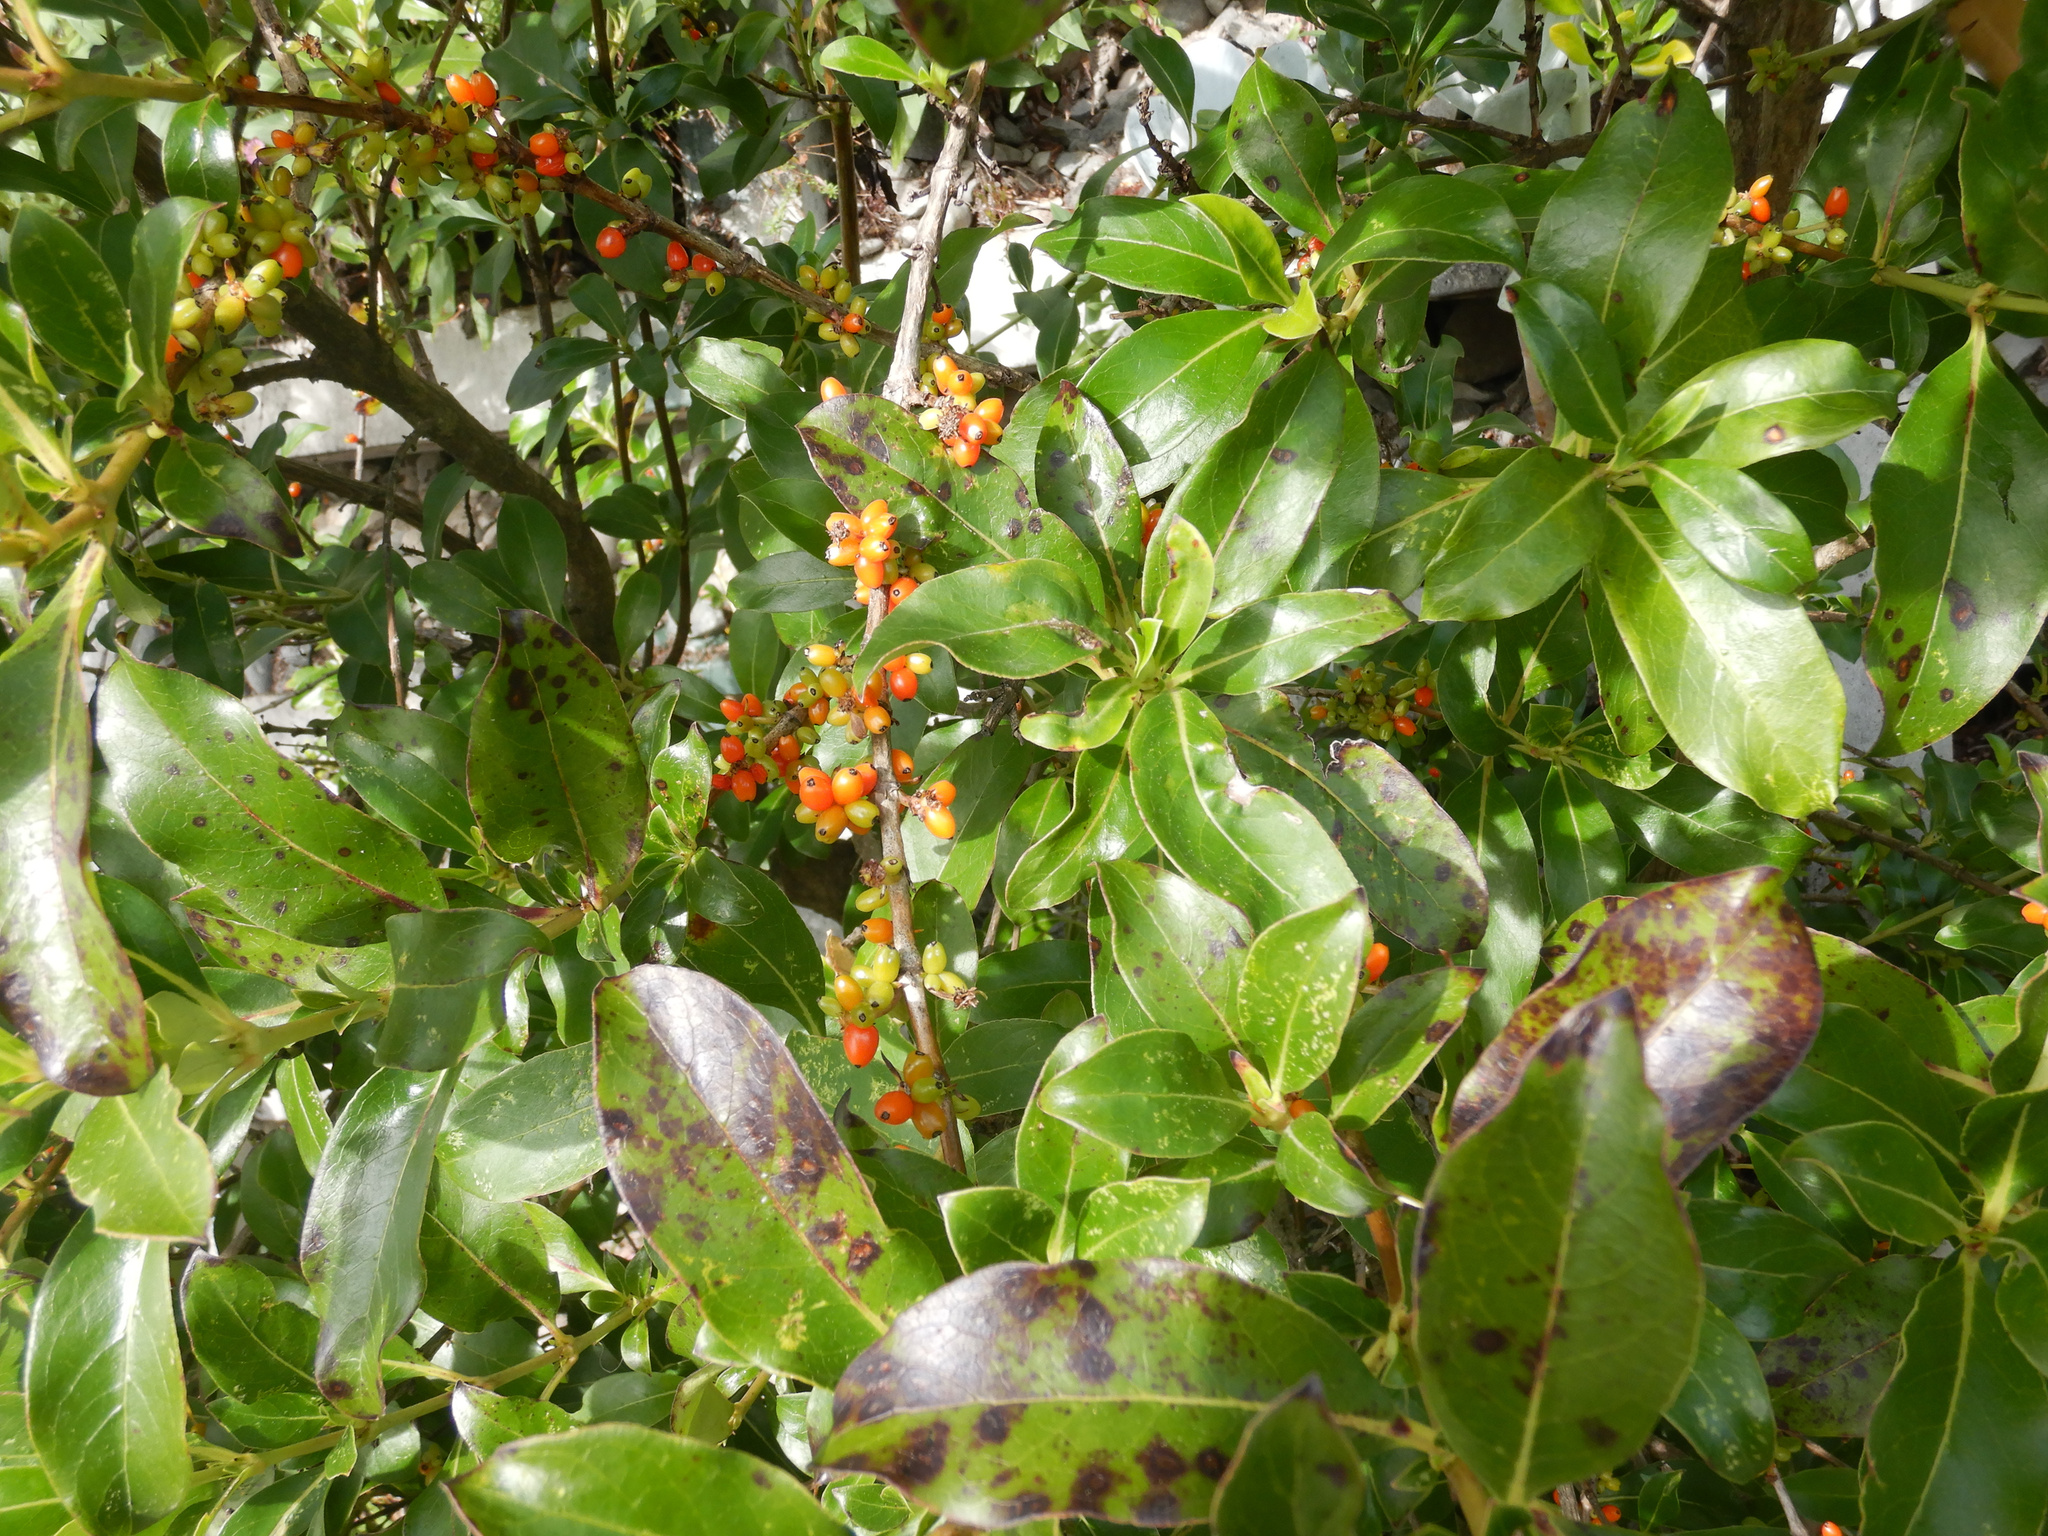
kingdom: Plantae
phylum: Tracheophyta
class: Magnoliopsida
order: Gentianales
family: Rubiaceae
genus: Coprosma
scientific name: Coprosma robusta
